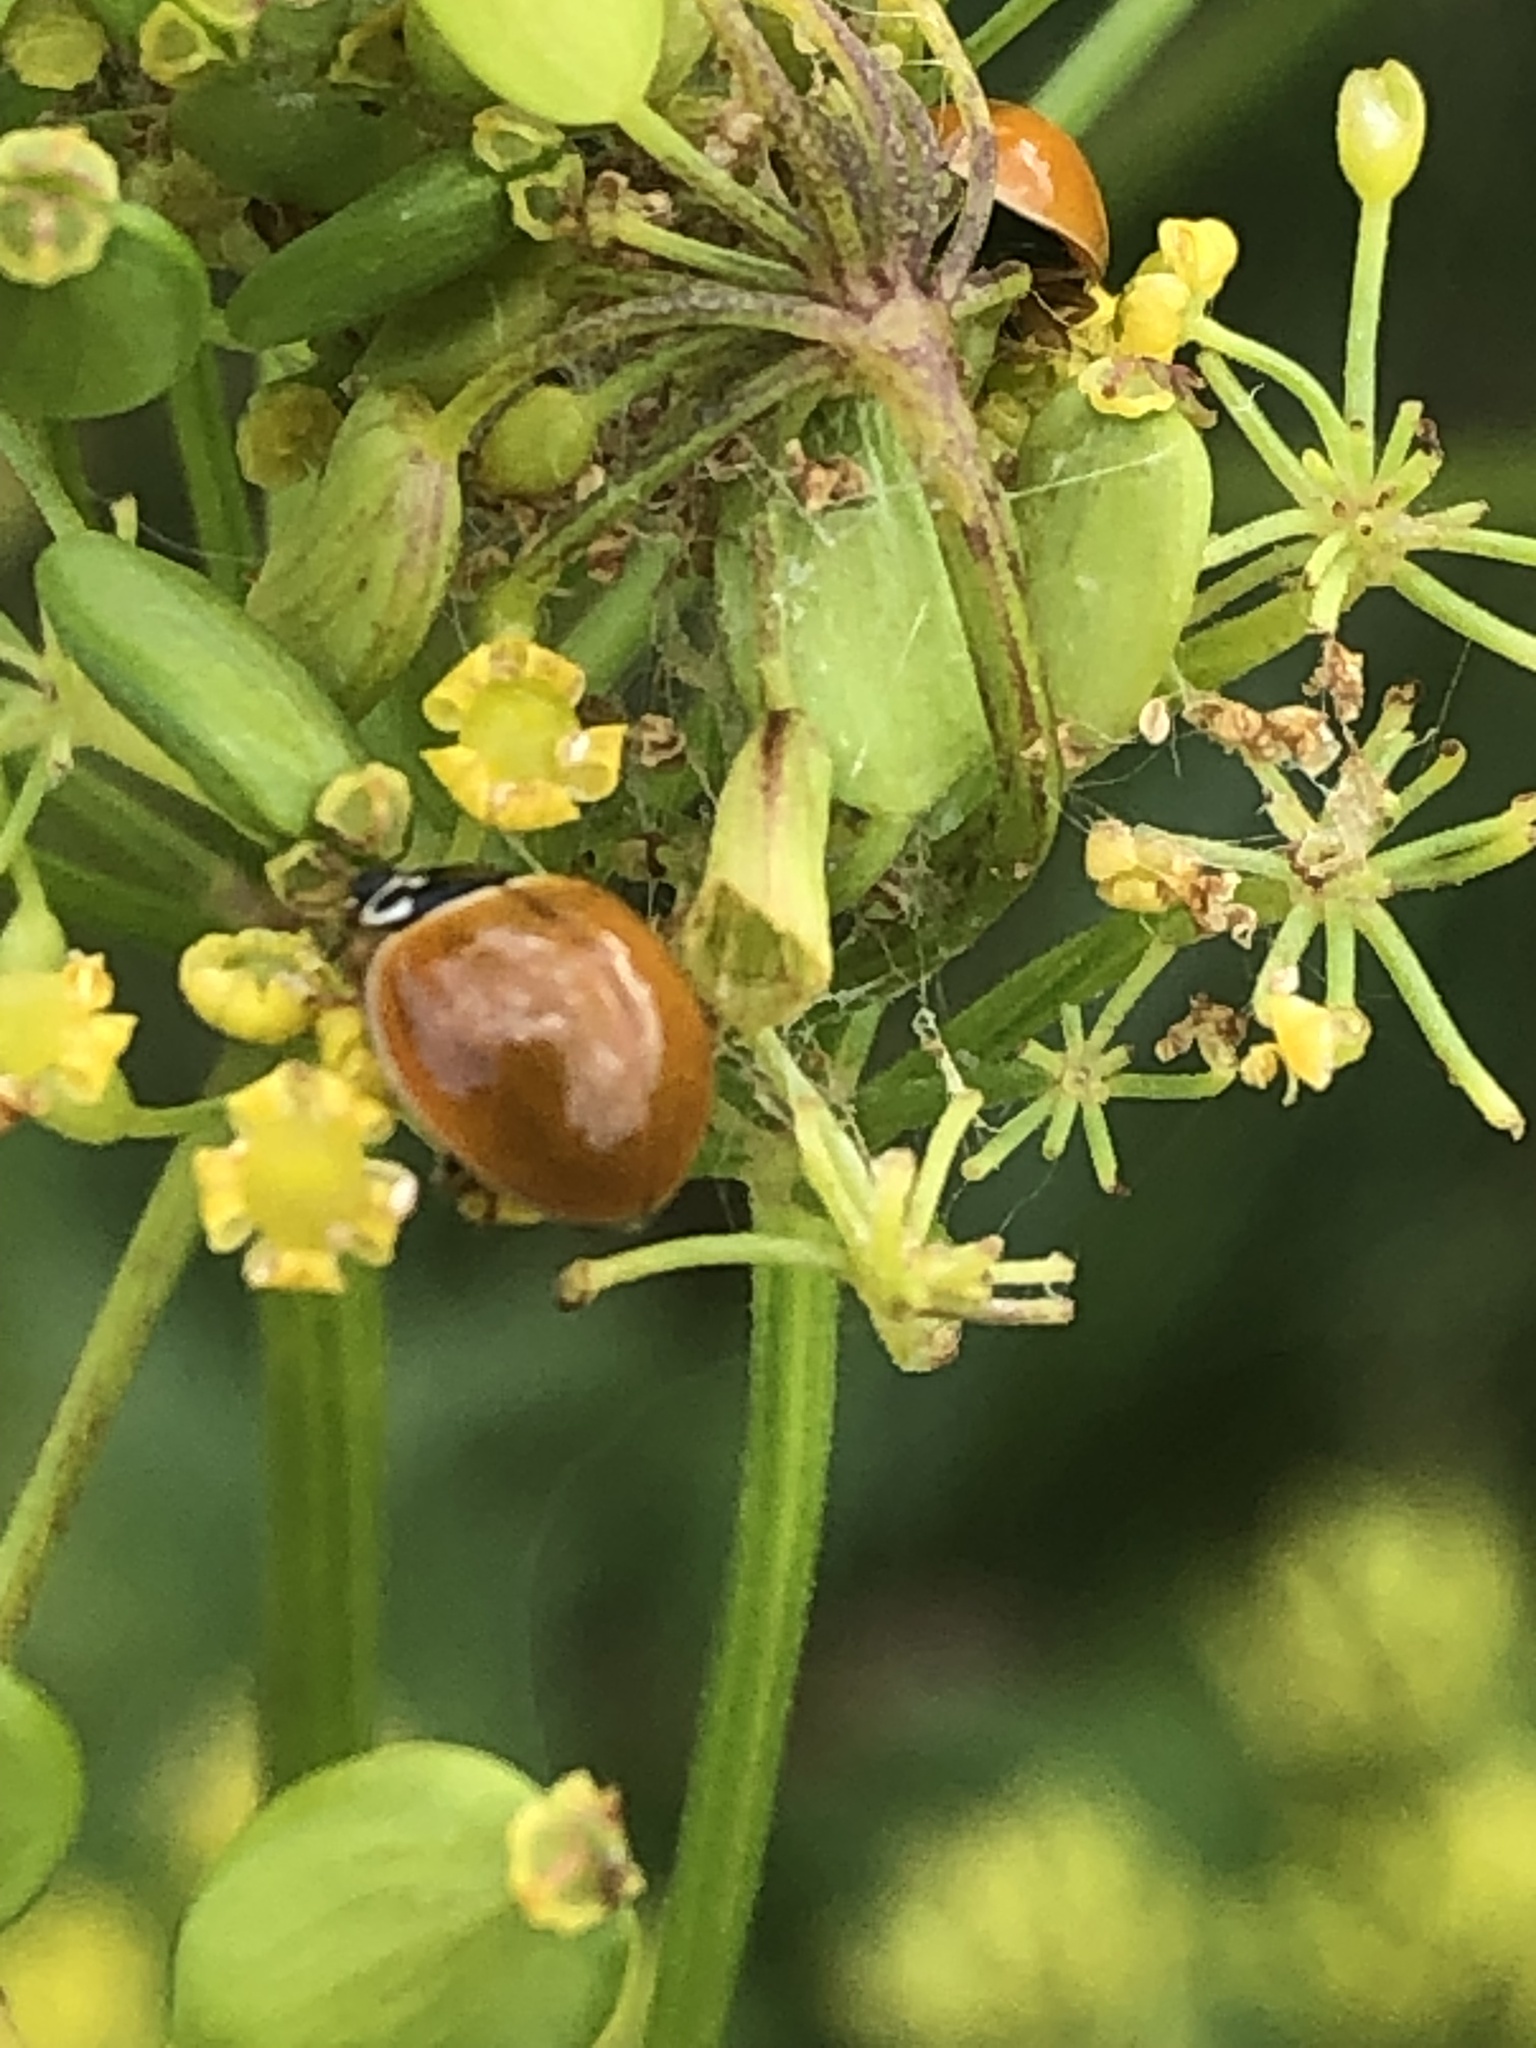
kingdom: Animalia
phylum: Arthropoda
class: Insecta
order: Coleoptera
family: Coccinellidae
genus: Cycloneda
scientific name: Cycloneda munda
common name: Polished lady beetle
